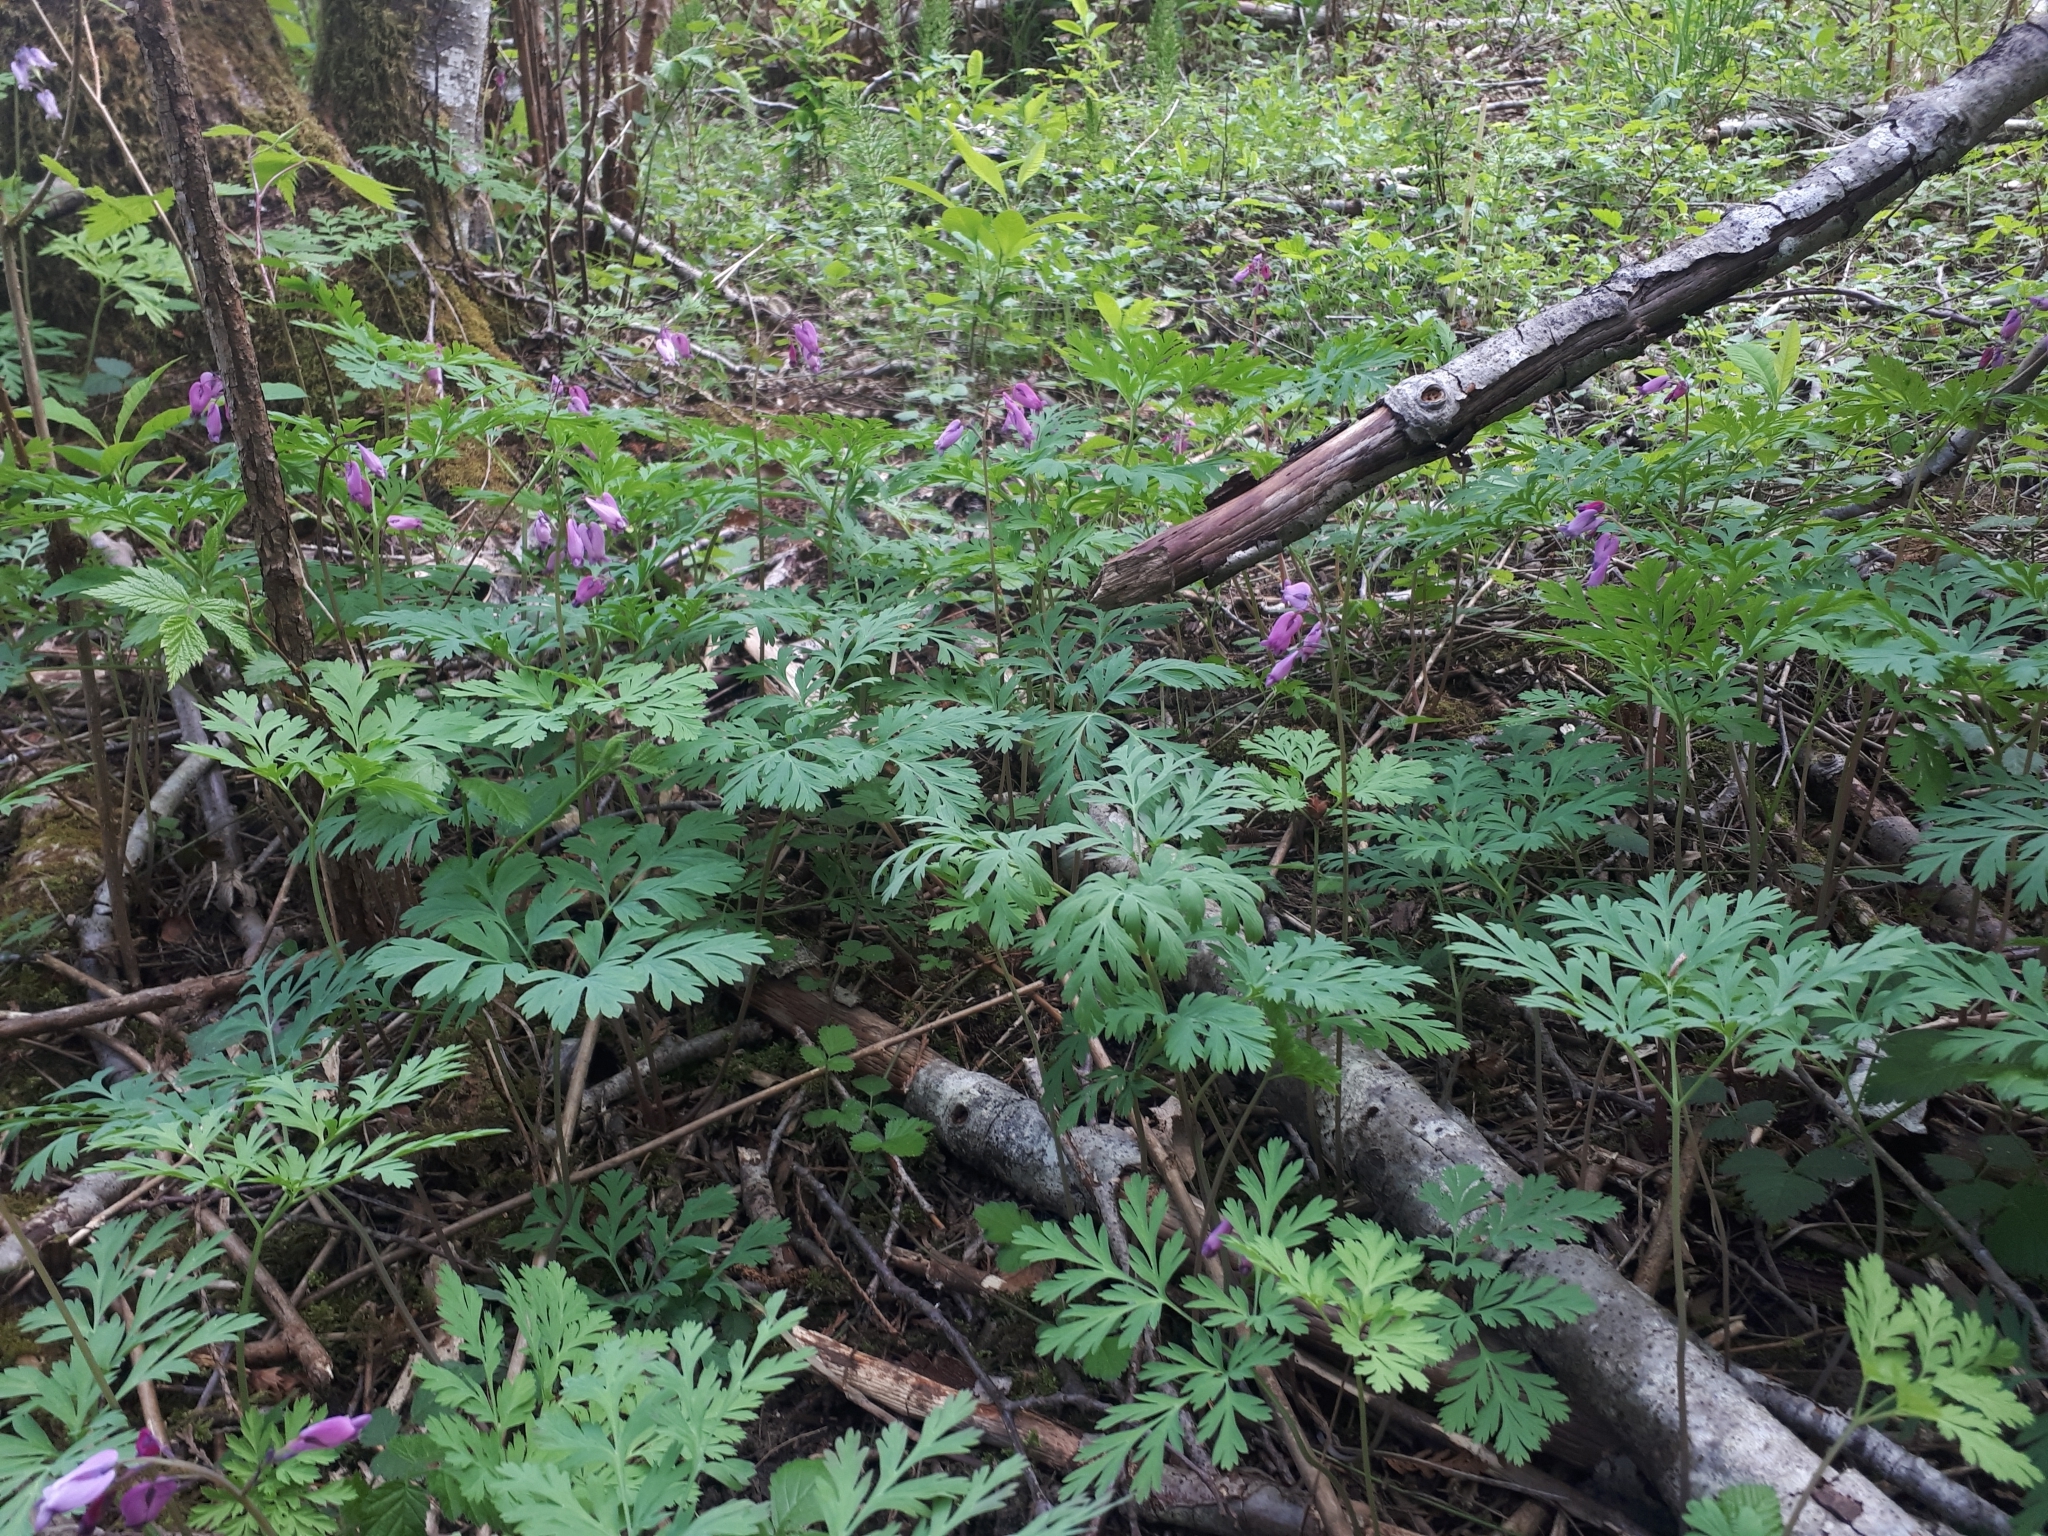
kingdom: Plantae
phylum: Tracheophyta
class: Magnoliopsida
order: Ranunculales
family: Papaveraceae
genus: Dicentra
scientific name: Dicentra formosa
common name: Bleeding-heart
